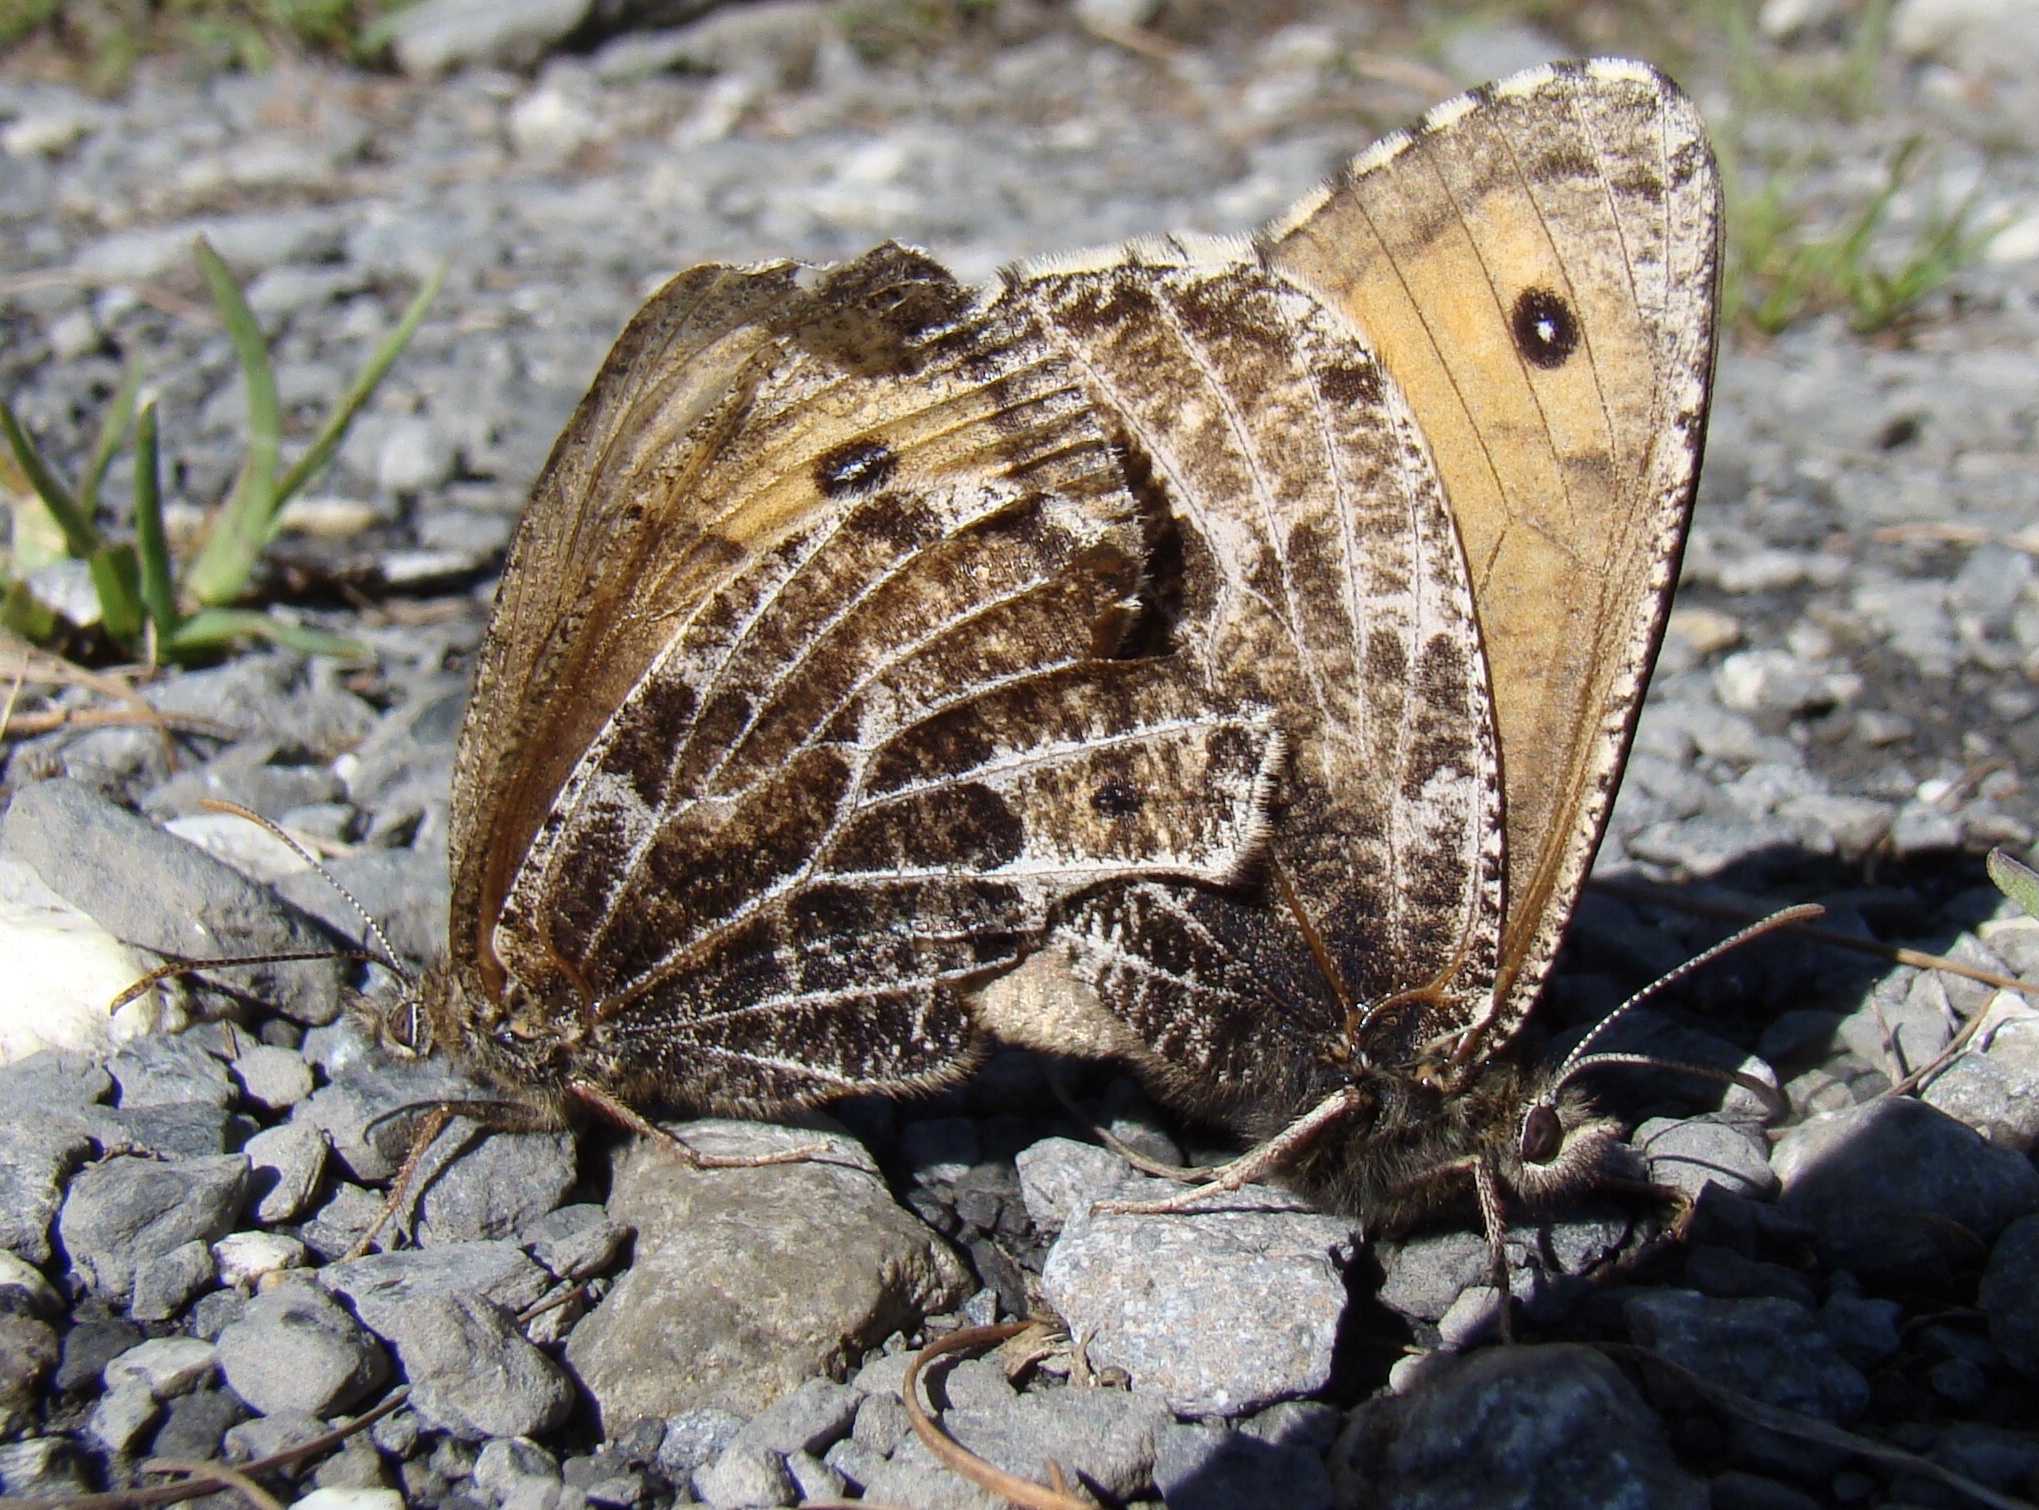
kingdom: Animalia
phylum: Arthropoda
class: Insecta
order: Lepidoptera
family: Nymphalidae
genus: Oeneis
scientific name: Oeneis aello
